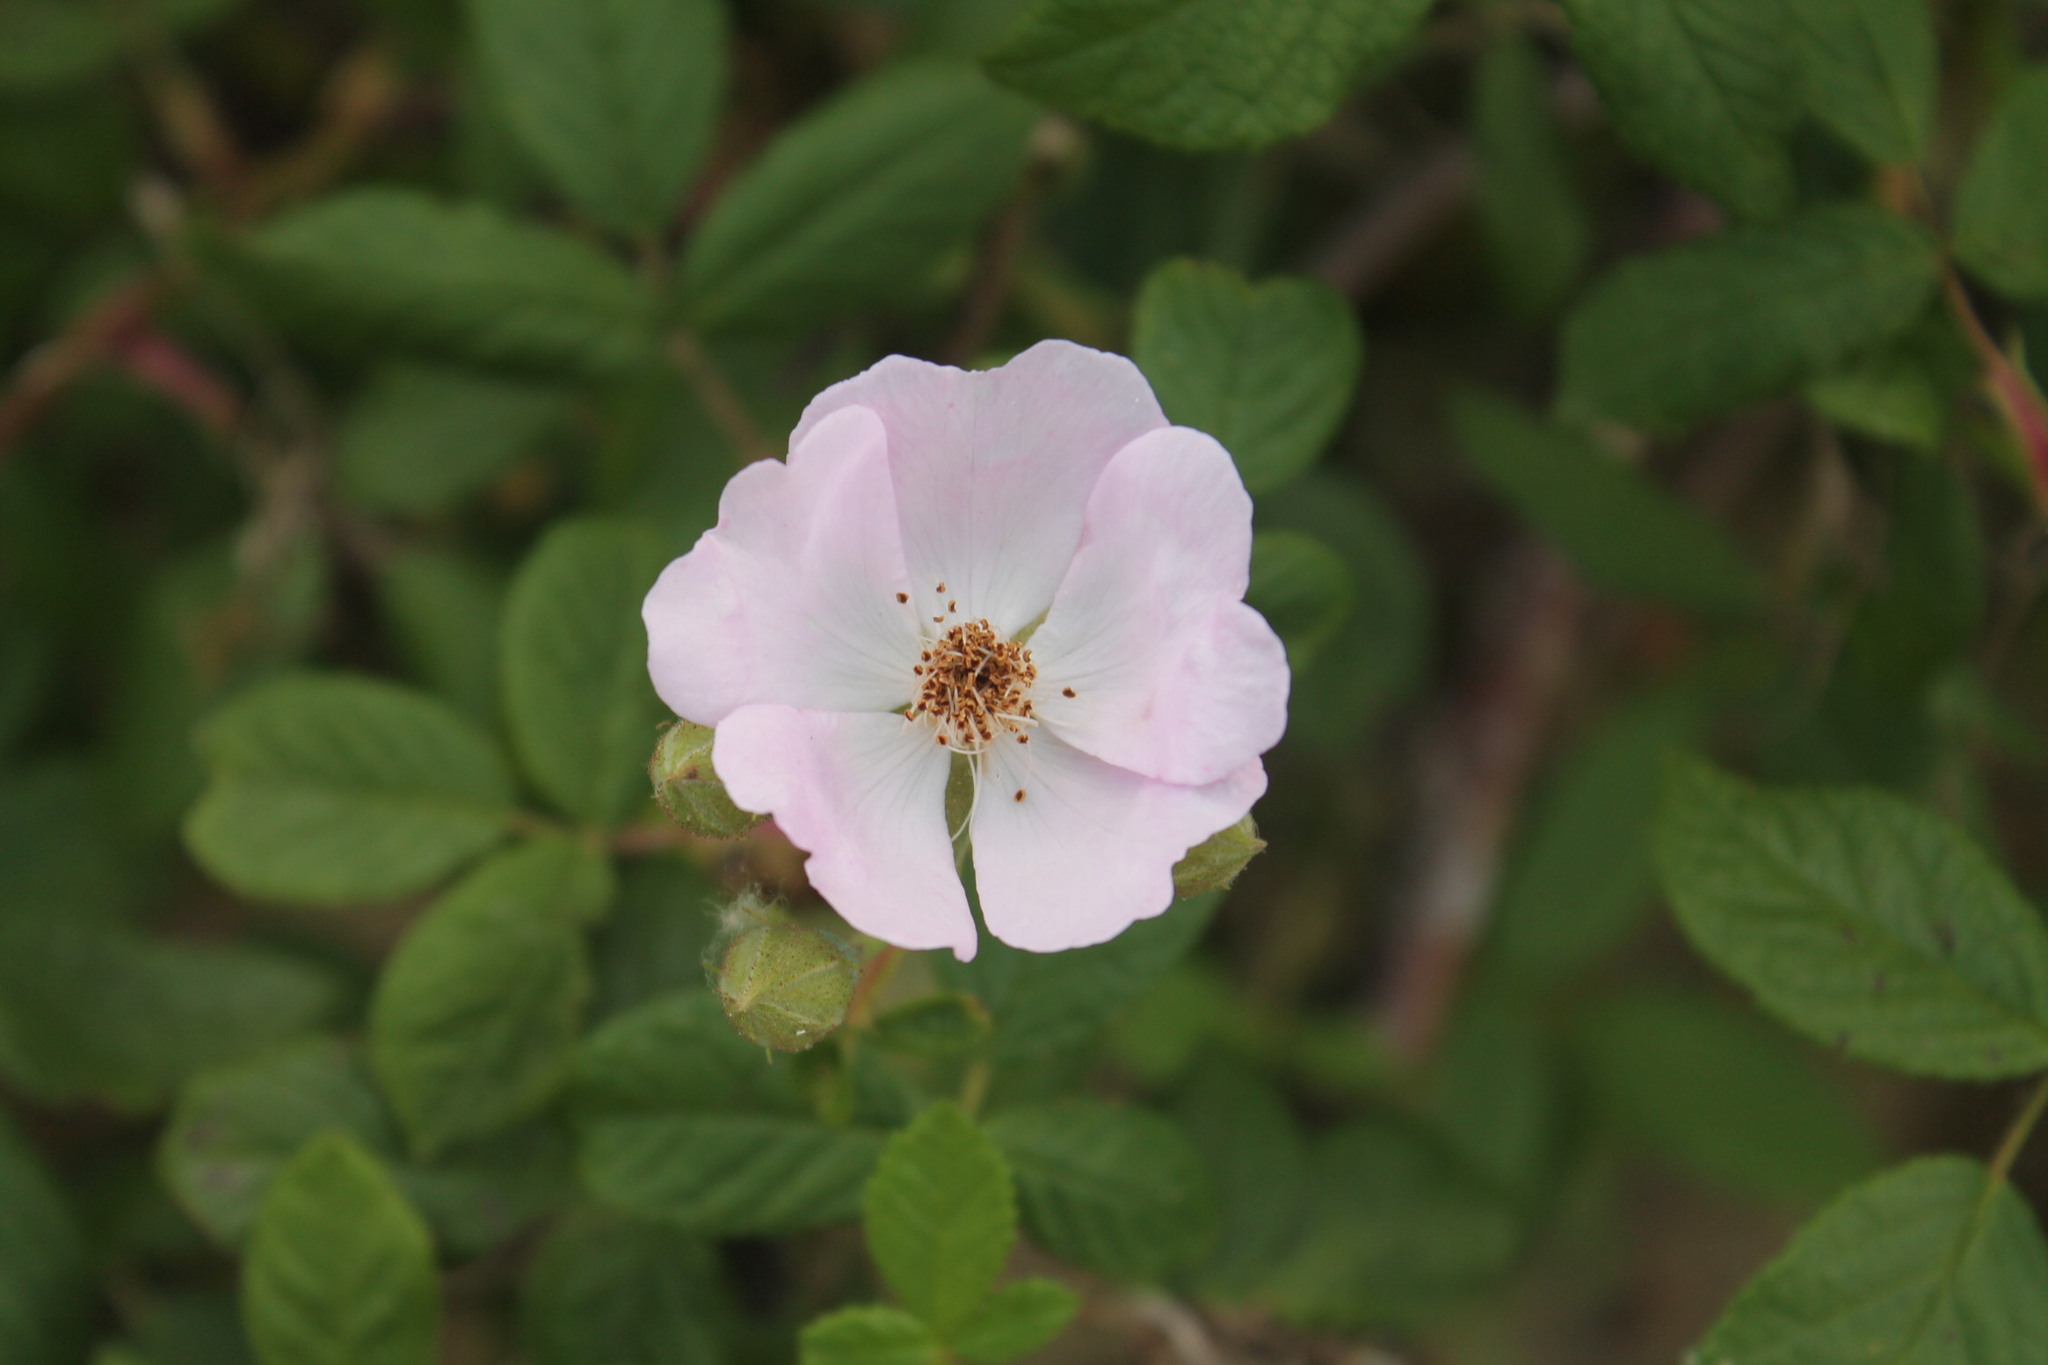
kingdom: Plantae
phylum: Tracheophyta
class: Magnoliopsida
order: Rosales
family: Rosaceae
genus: Rosa
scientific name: Rosa setigera
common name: Prairie rose
